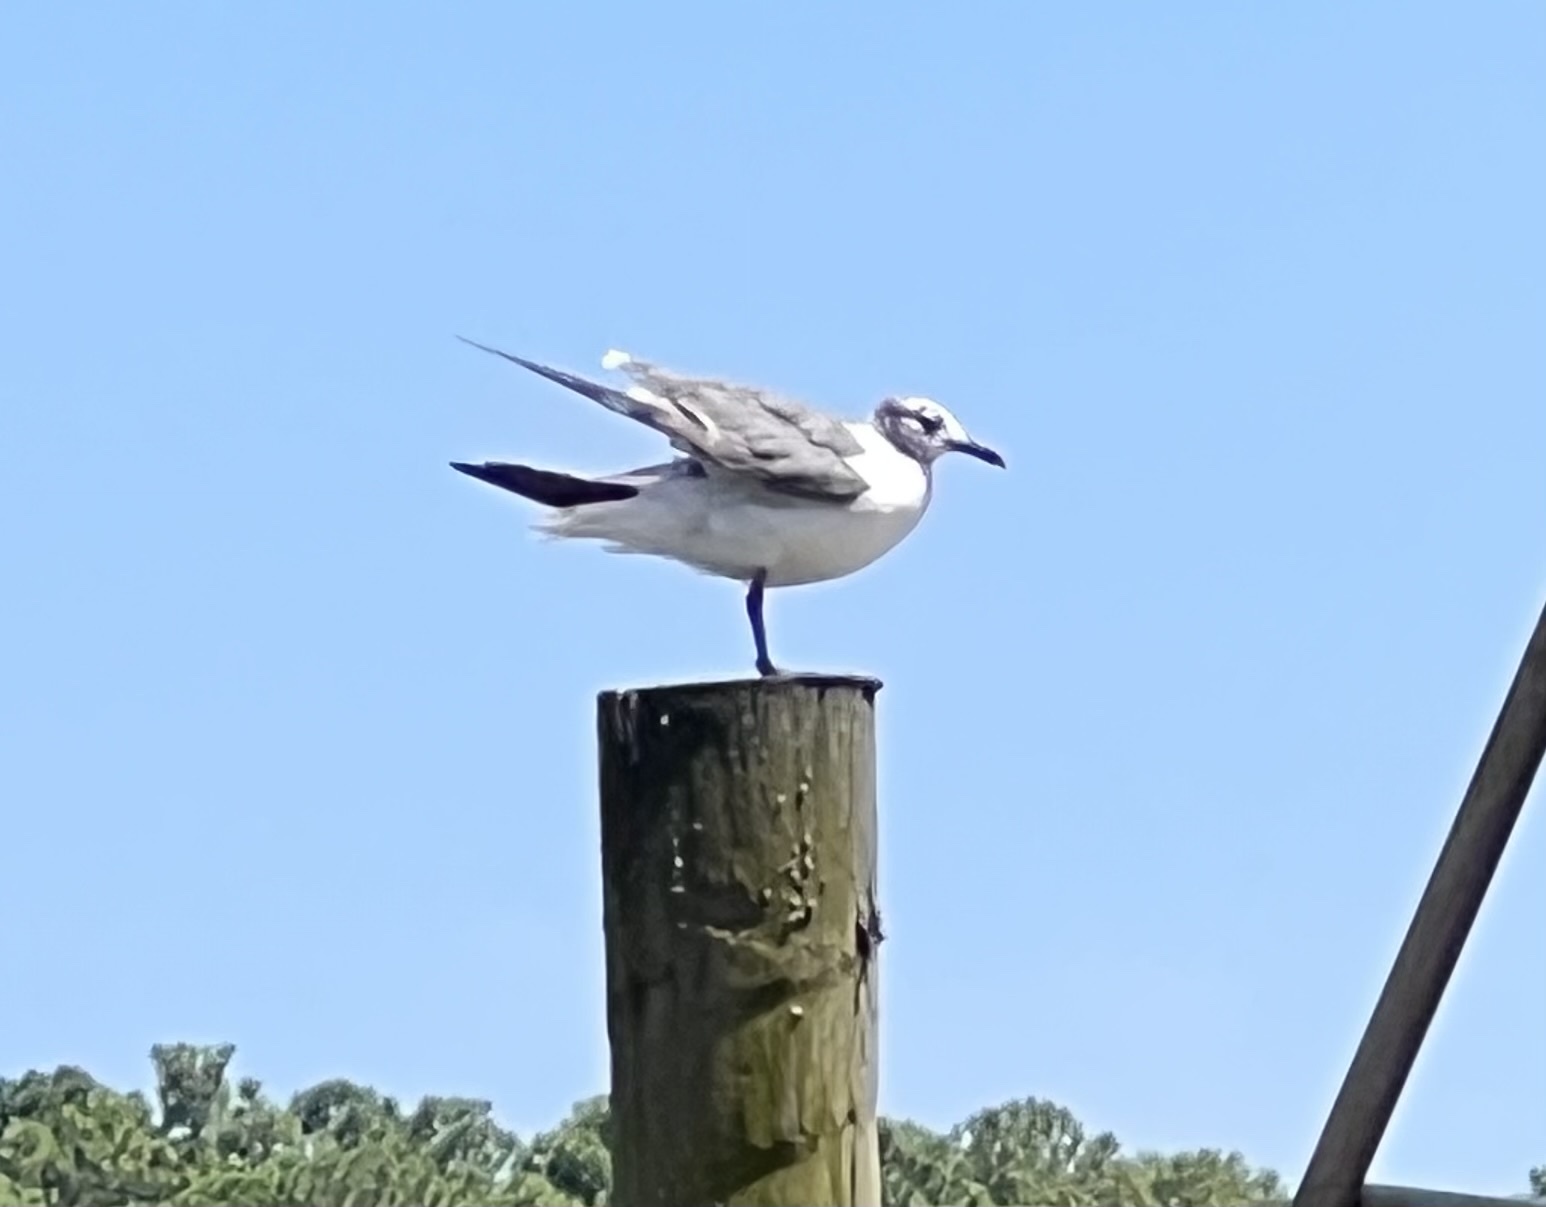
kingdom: Animalia
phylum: Chordata
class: Aves
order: Charadriiformes
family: Laridae
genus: Leucophaeus
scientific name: Leucophaeus atricilla
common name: Laughing gull
